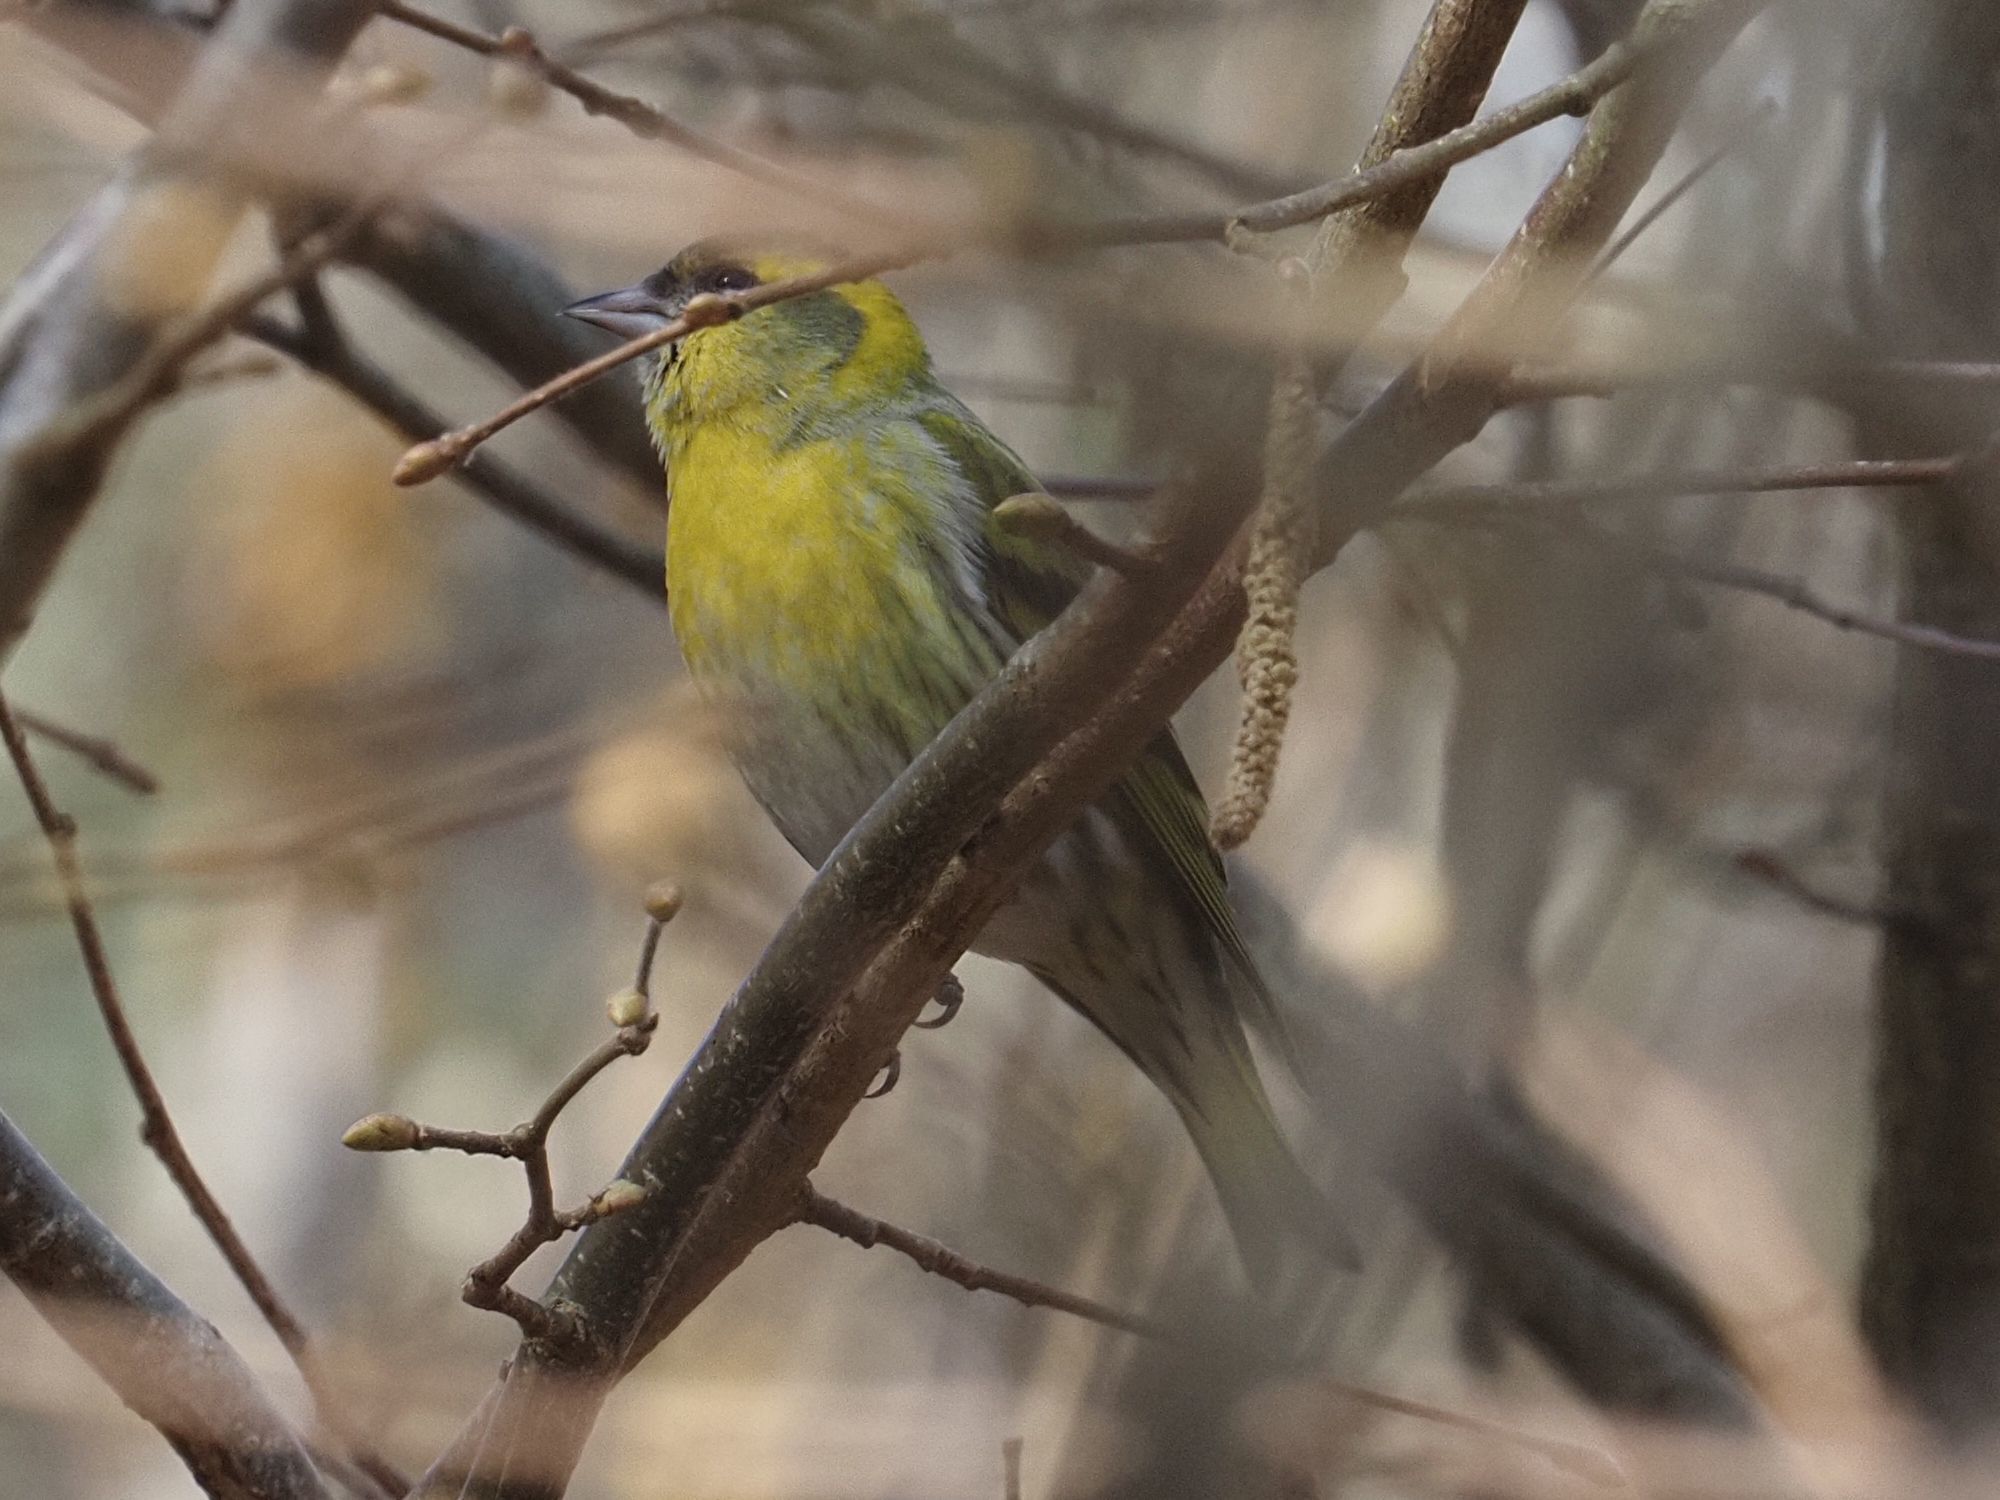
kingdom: Animalia
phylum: Chordata
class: Aves
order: Passeriformes
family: Fringillidae
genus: Spinus
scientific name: Spinus spinus
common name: Eurasian siskin
